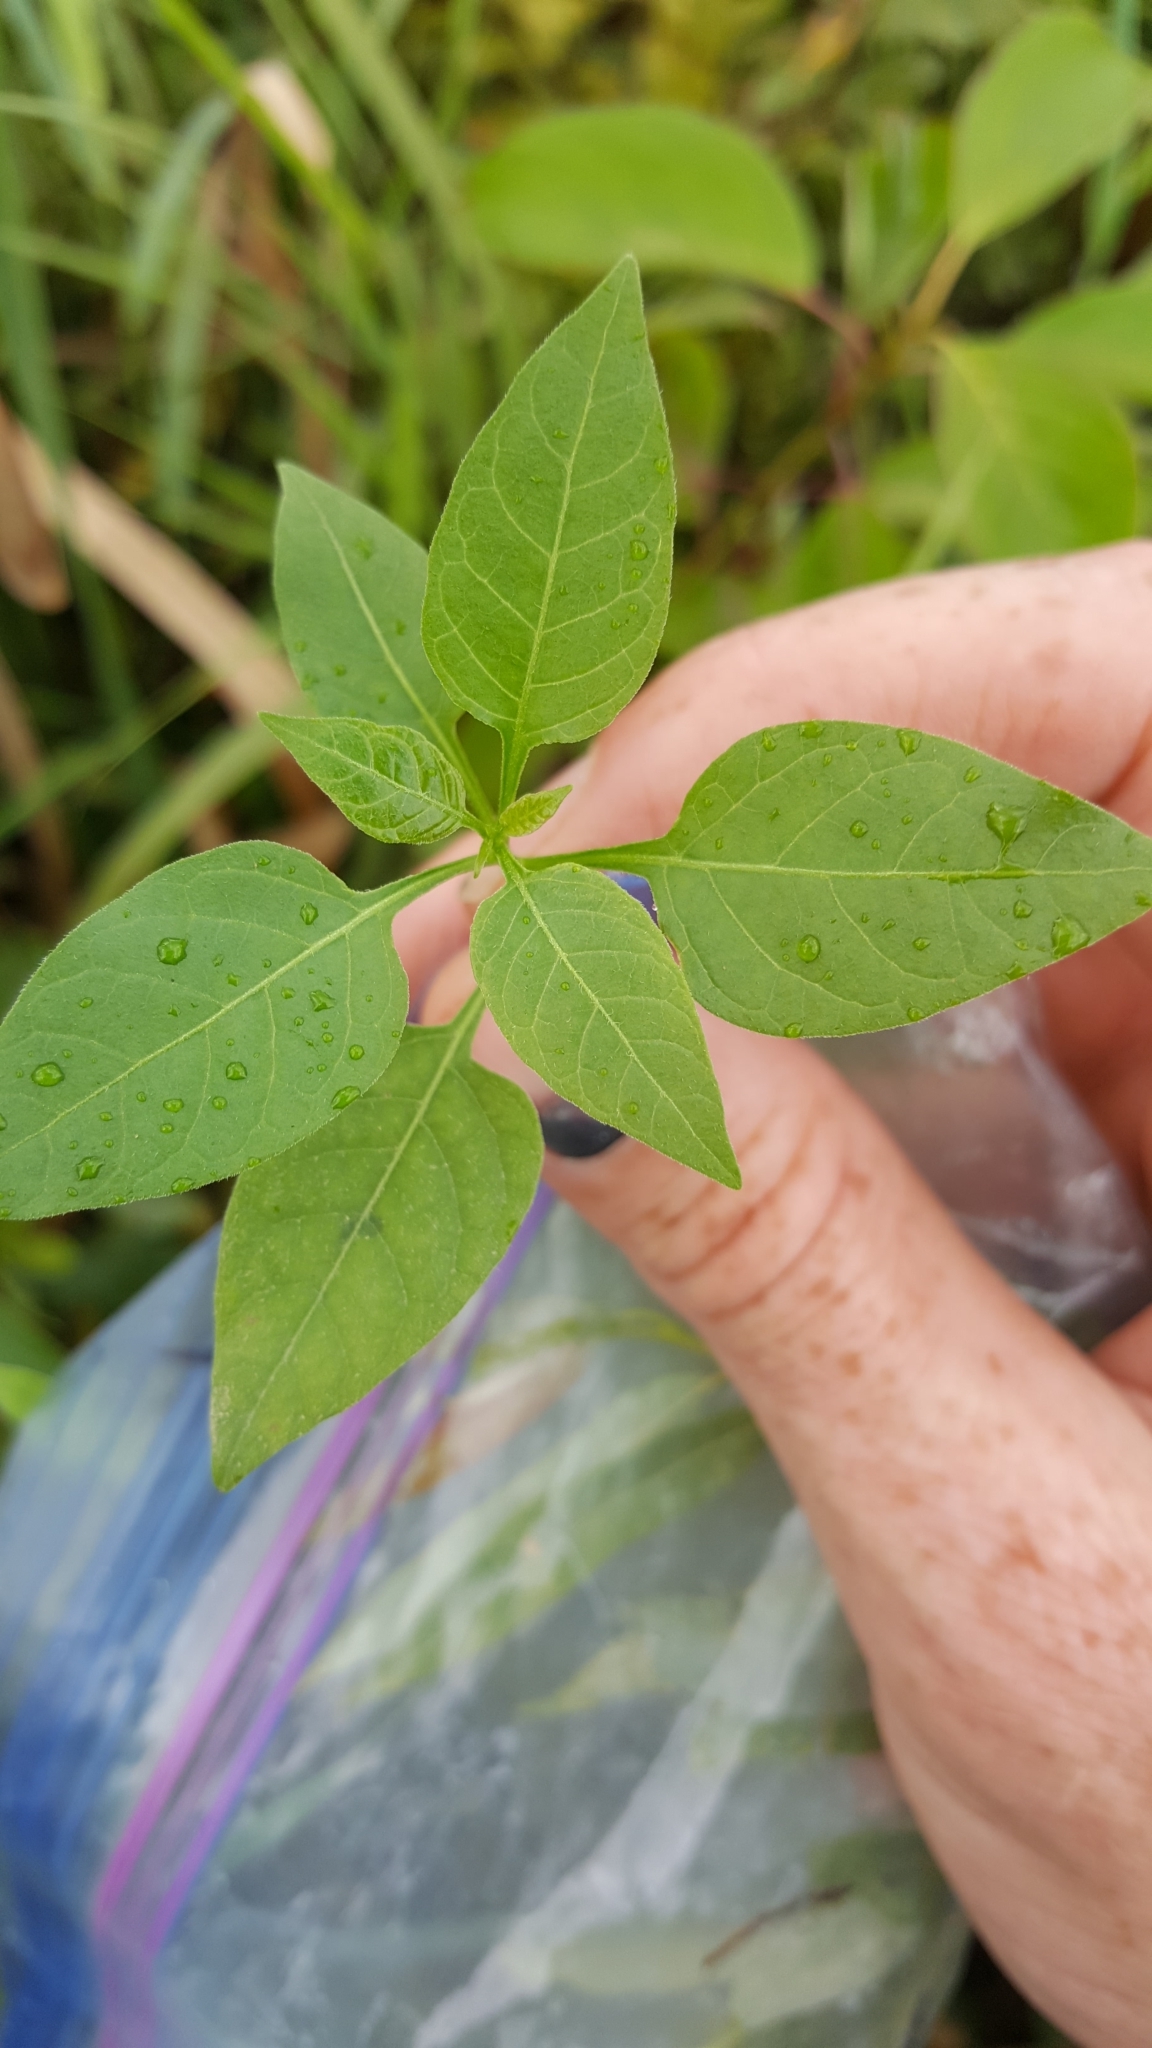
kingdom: Plantae
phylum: Tracheophyta
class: Magnoliopsida
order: Solanales
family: Solanaceae
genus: Solanum
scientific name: Solanum dulcamara
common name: Climbing nightshade
